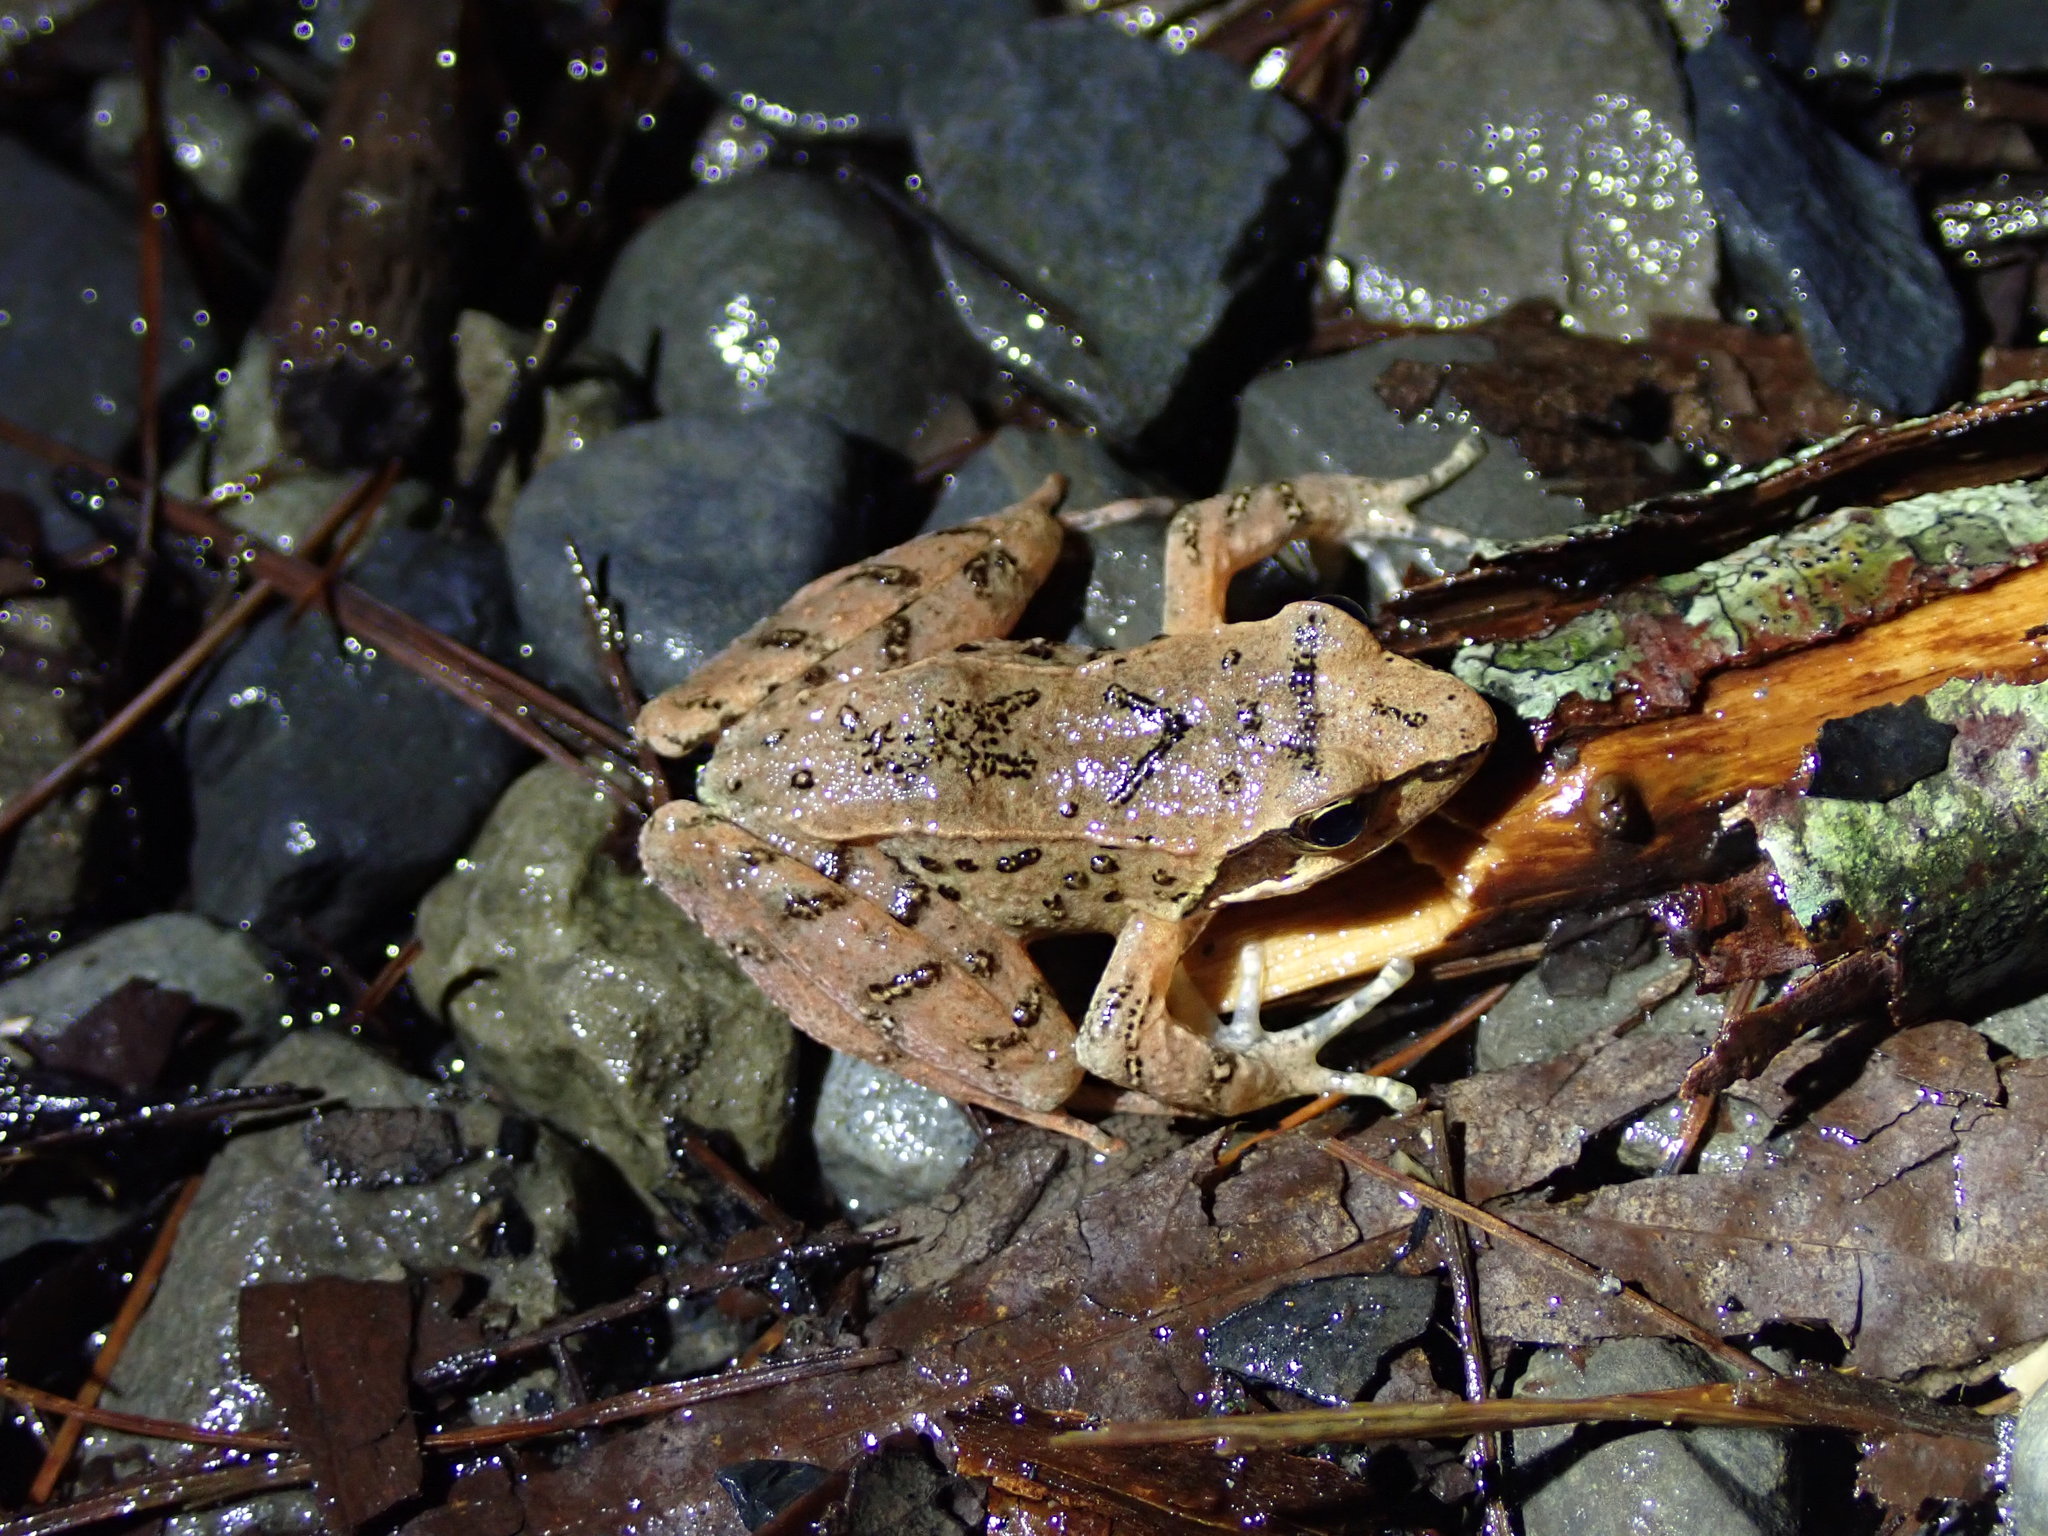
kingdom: Animalia
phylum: Chordata
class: Amphibia
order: Anura
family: Ranidae
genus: Rana
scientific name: Rana sauteri
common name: Kanshirei village frog
